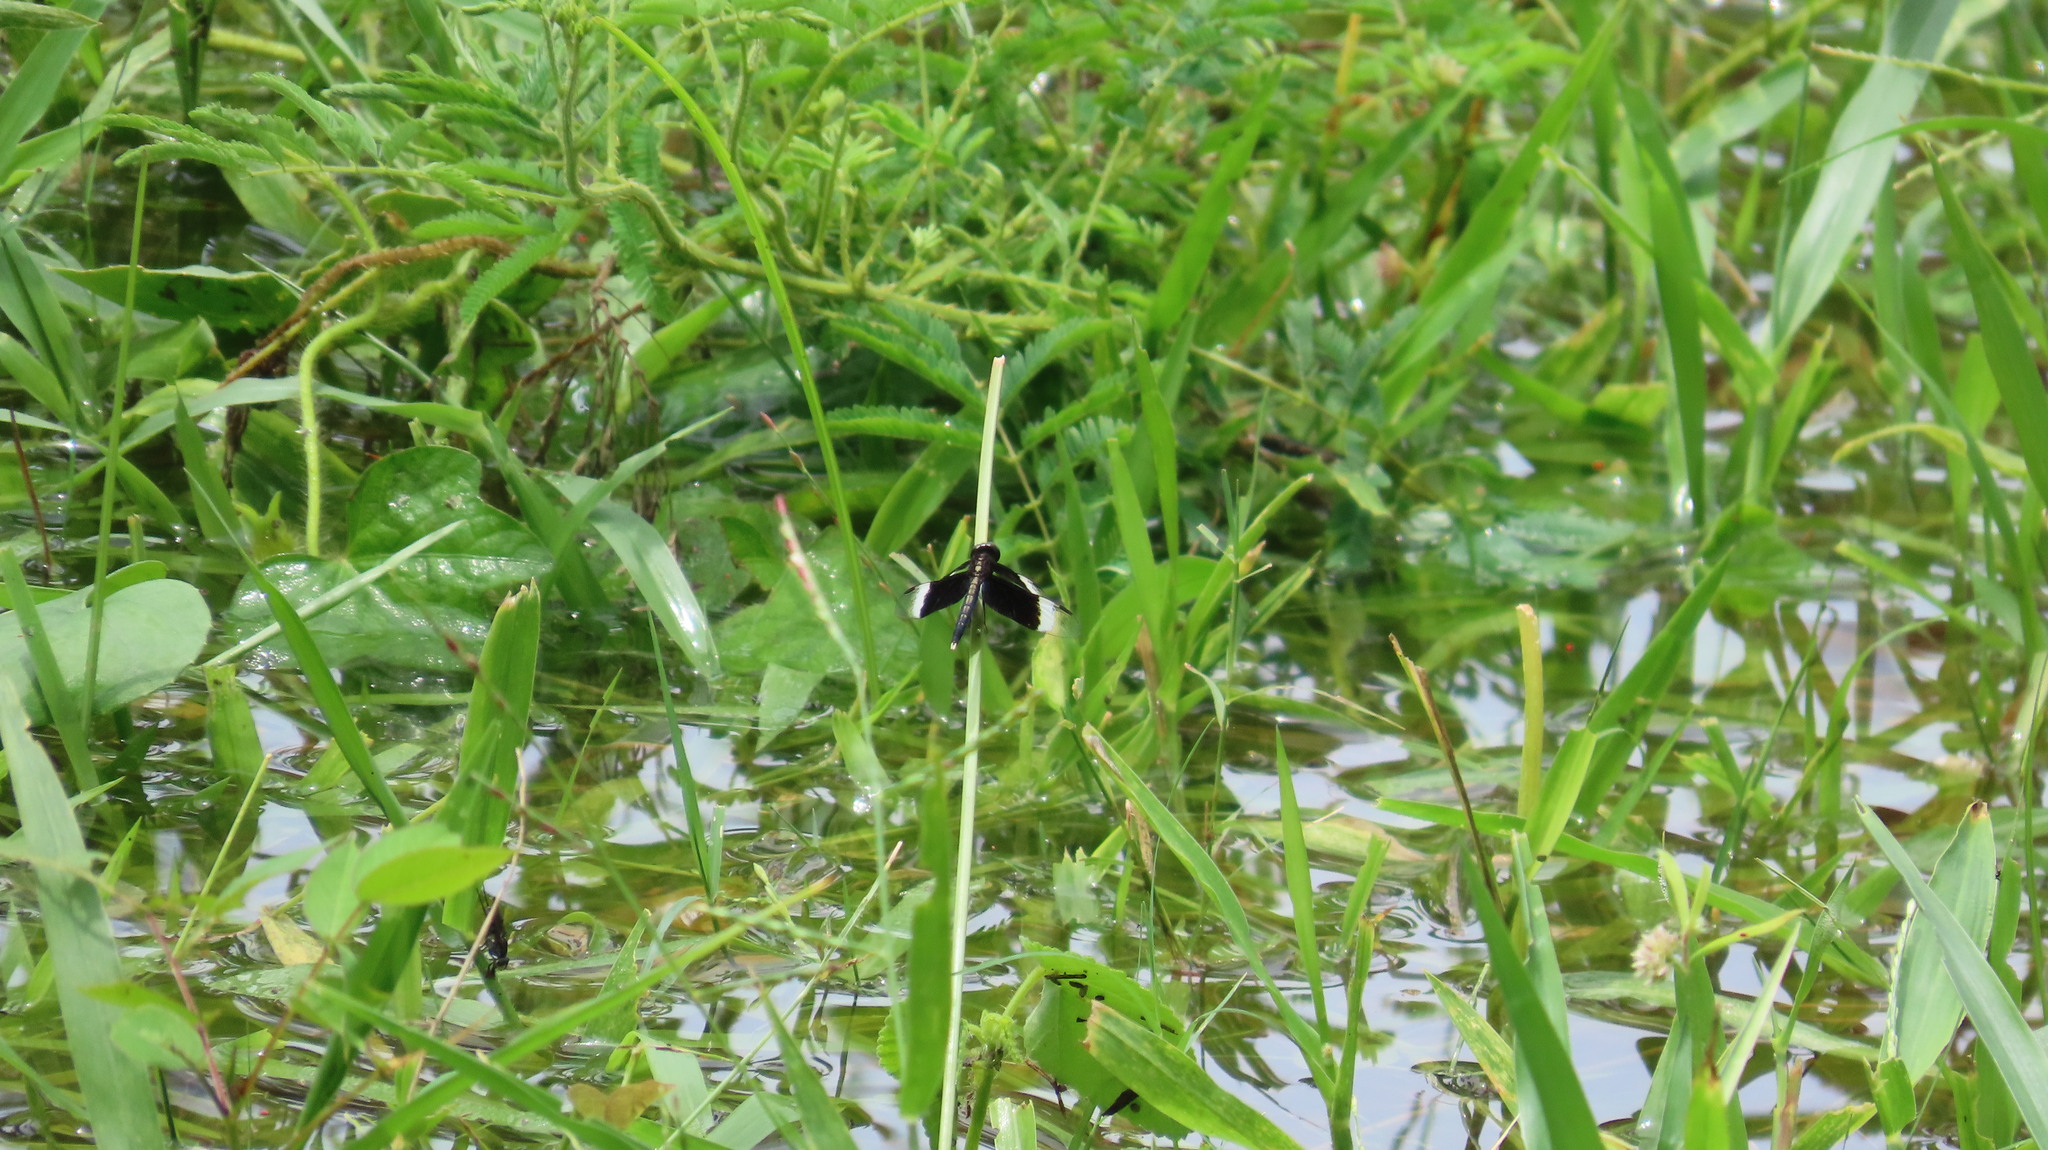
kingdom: Animalia
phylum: Arthropoda
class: Insecta
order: Odonata
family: Libellulidae
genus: Neurothemis
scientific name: Neurothemis tullia
